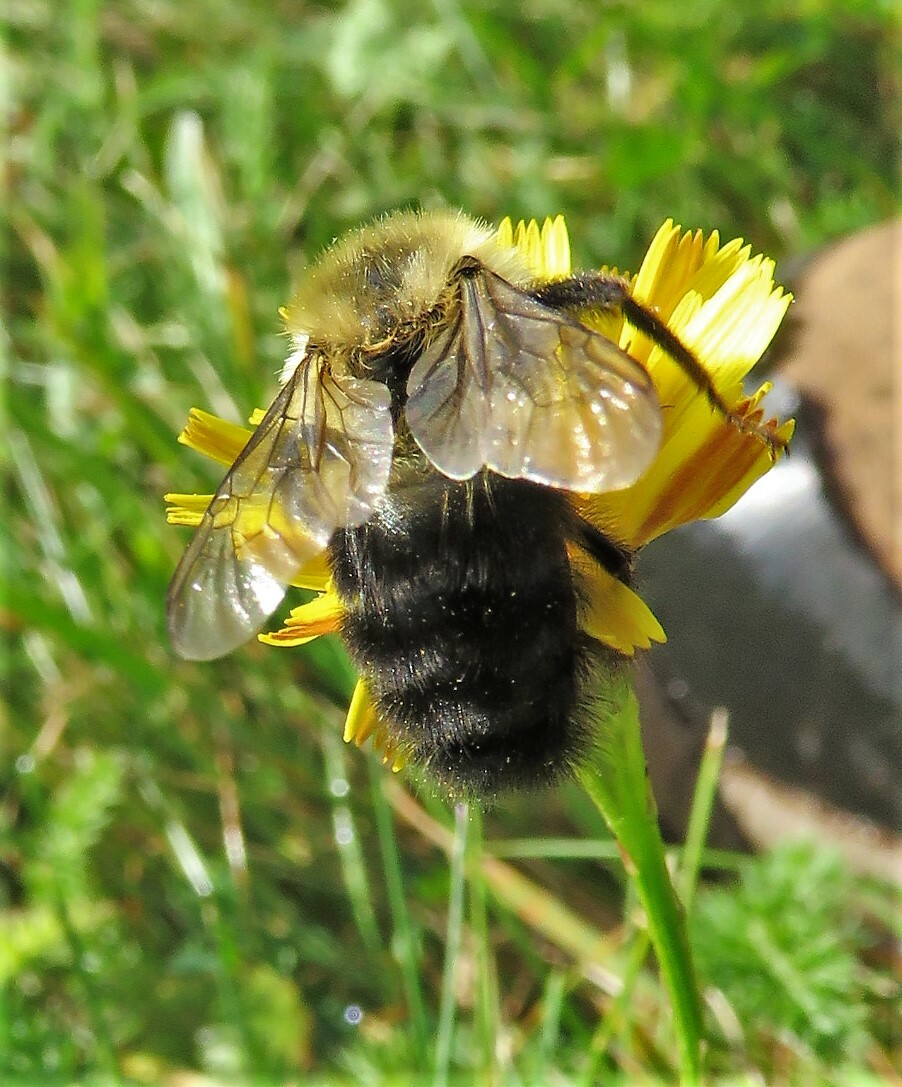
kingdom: Animalia
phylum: Arthropoda
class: Insecta
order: Hymenoptera
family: Apidae
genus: Bombus
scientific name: Bombus impatiens
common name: Common eastern bumble bee
